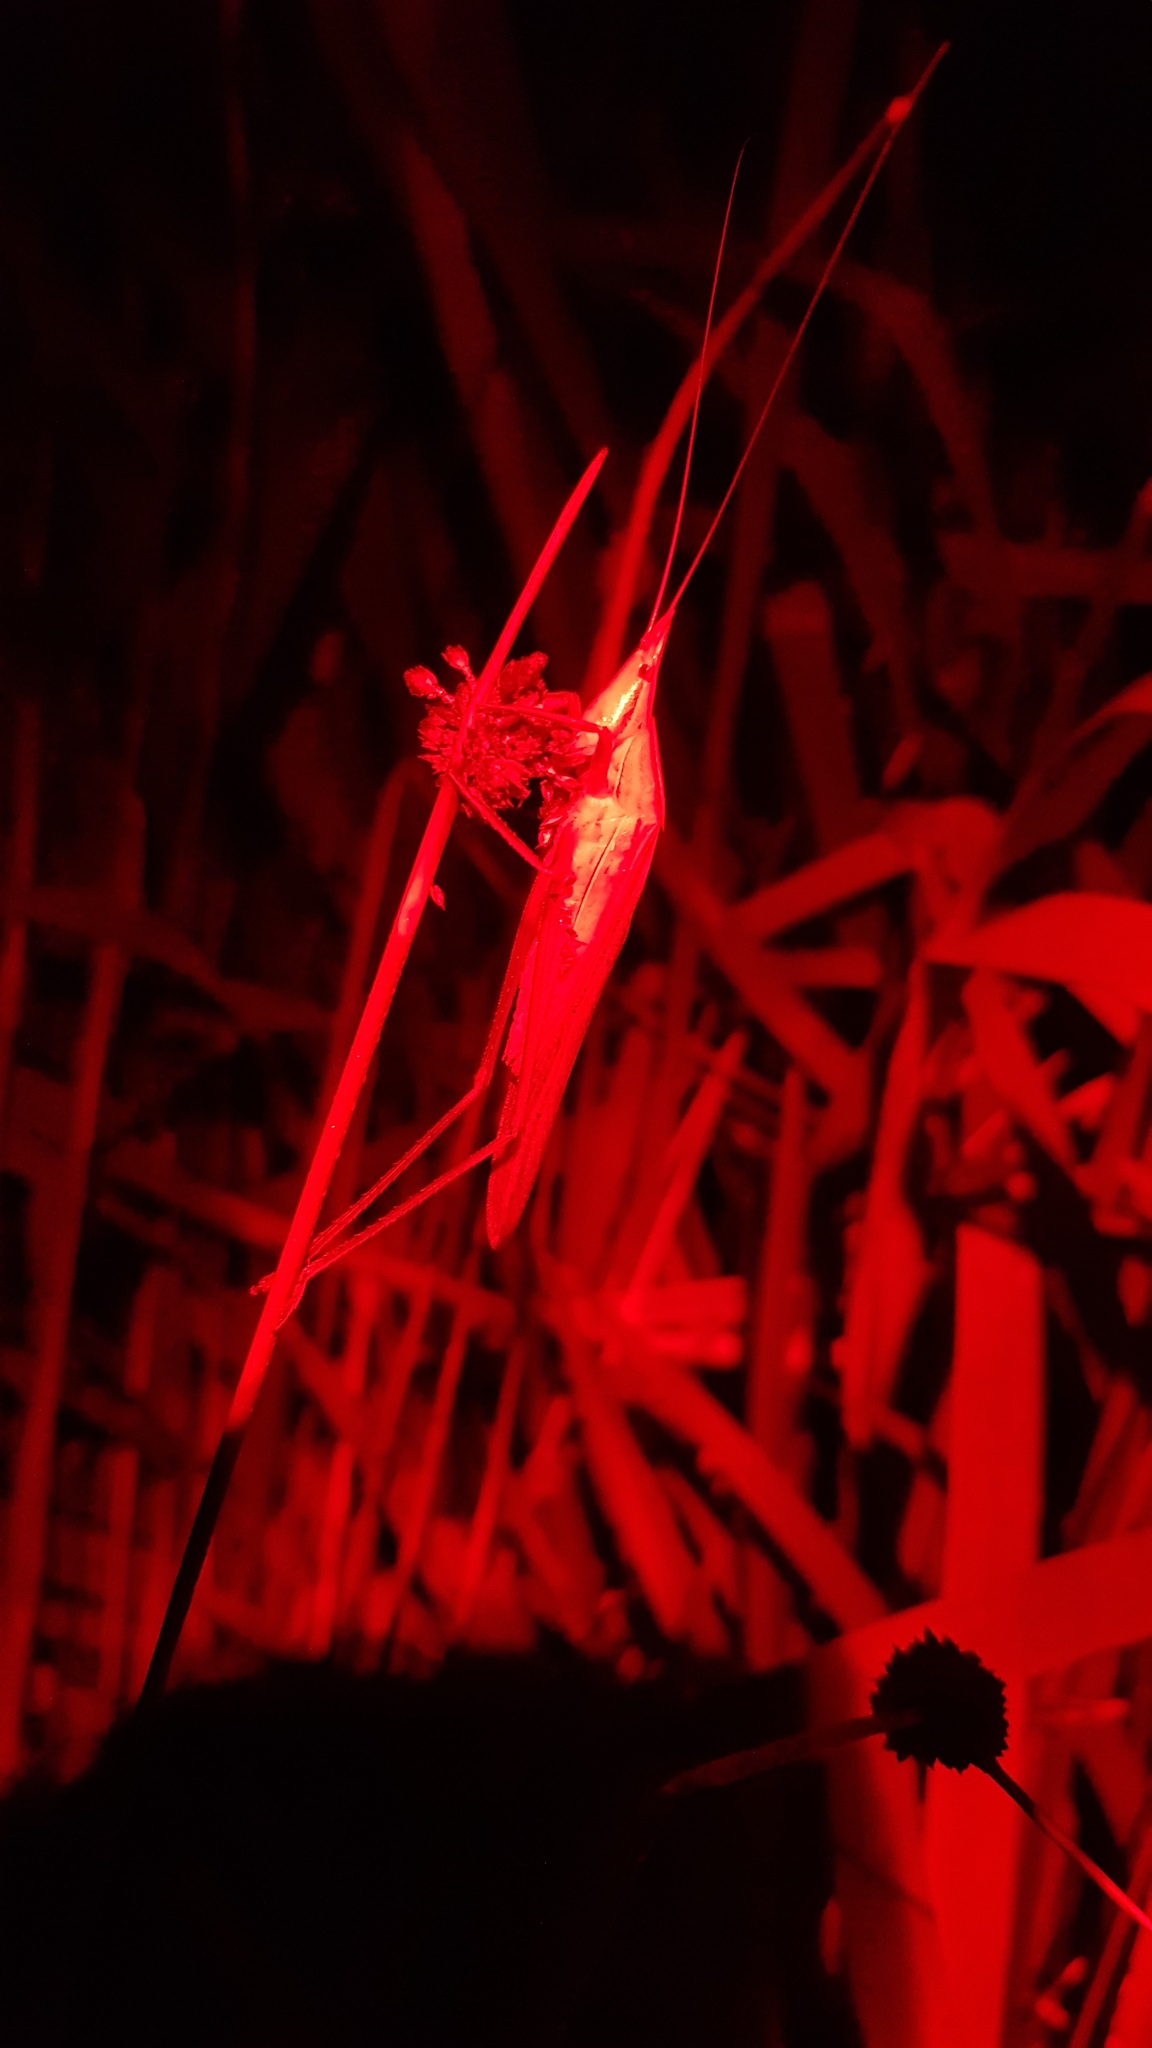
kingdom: Animalia
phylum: Arthropoda
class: Insecta
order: Orthoptera
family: Tettigoniidae
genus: Pseudorhynchus
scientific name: Pseudorhynchus lessonii
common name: Lesson's mimicking snout nose
